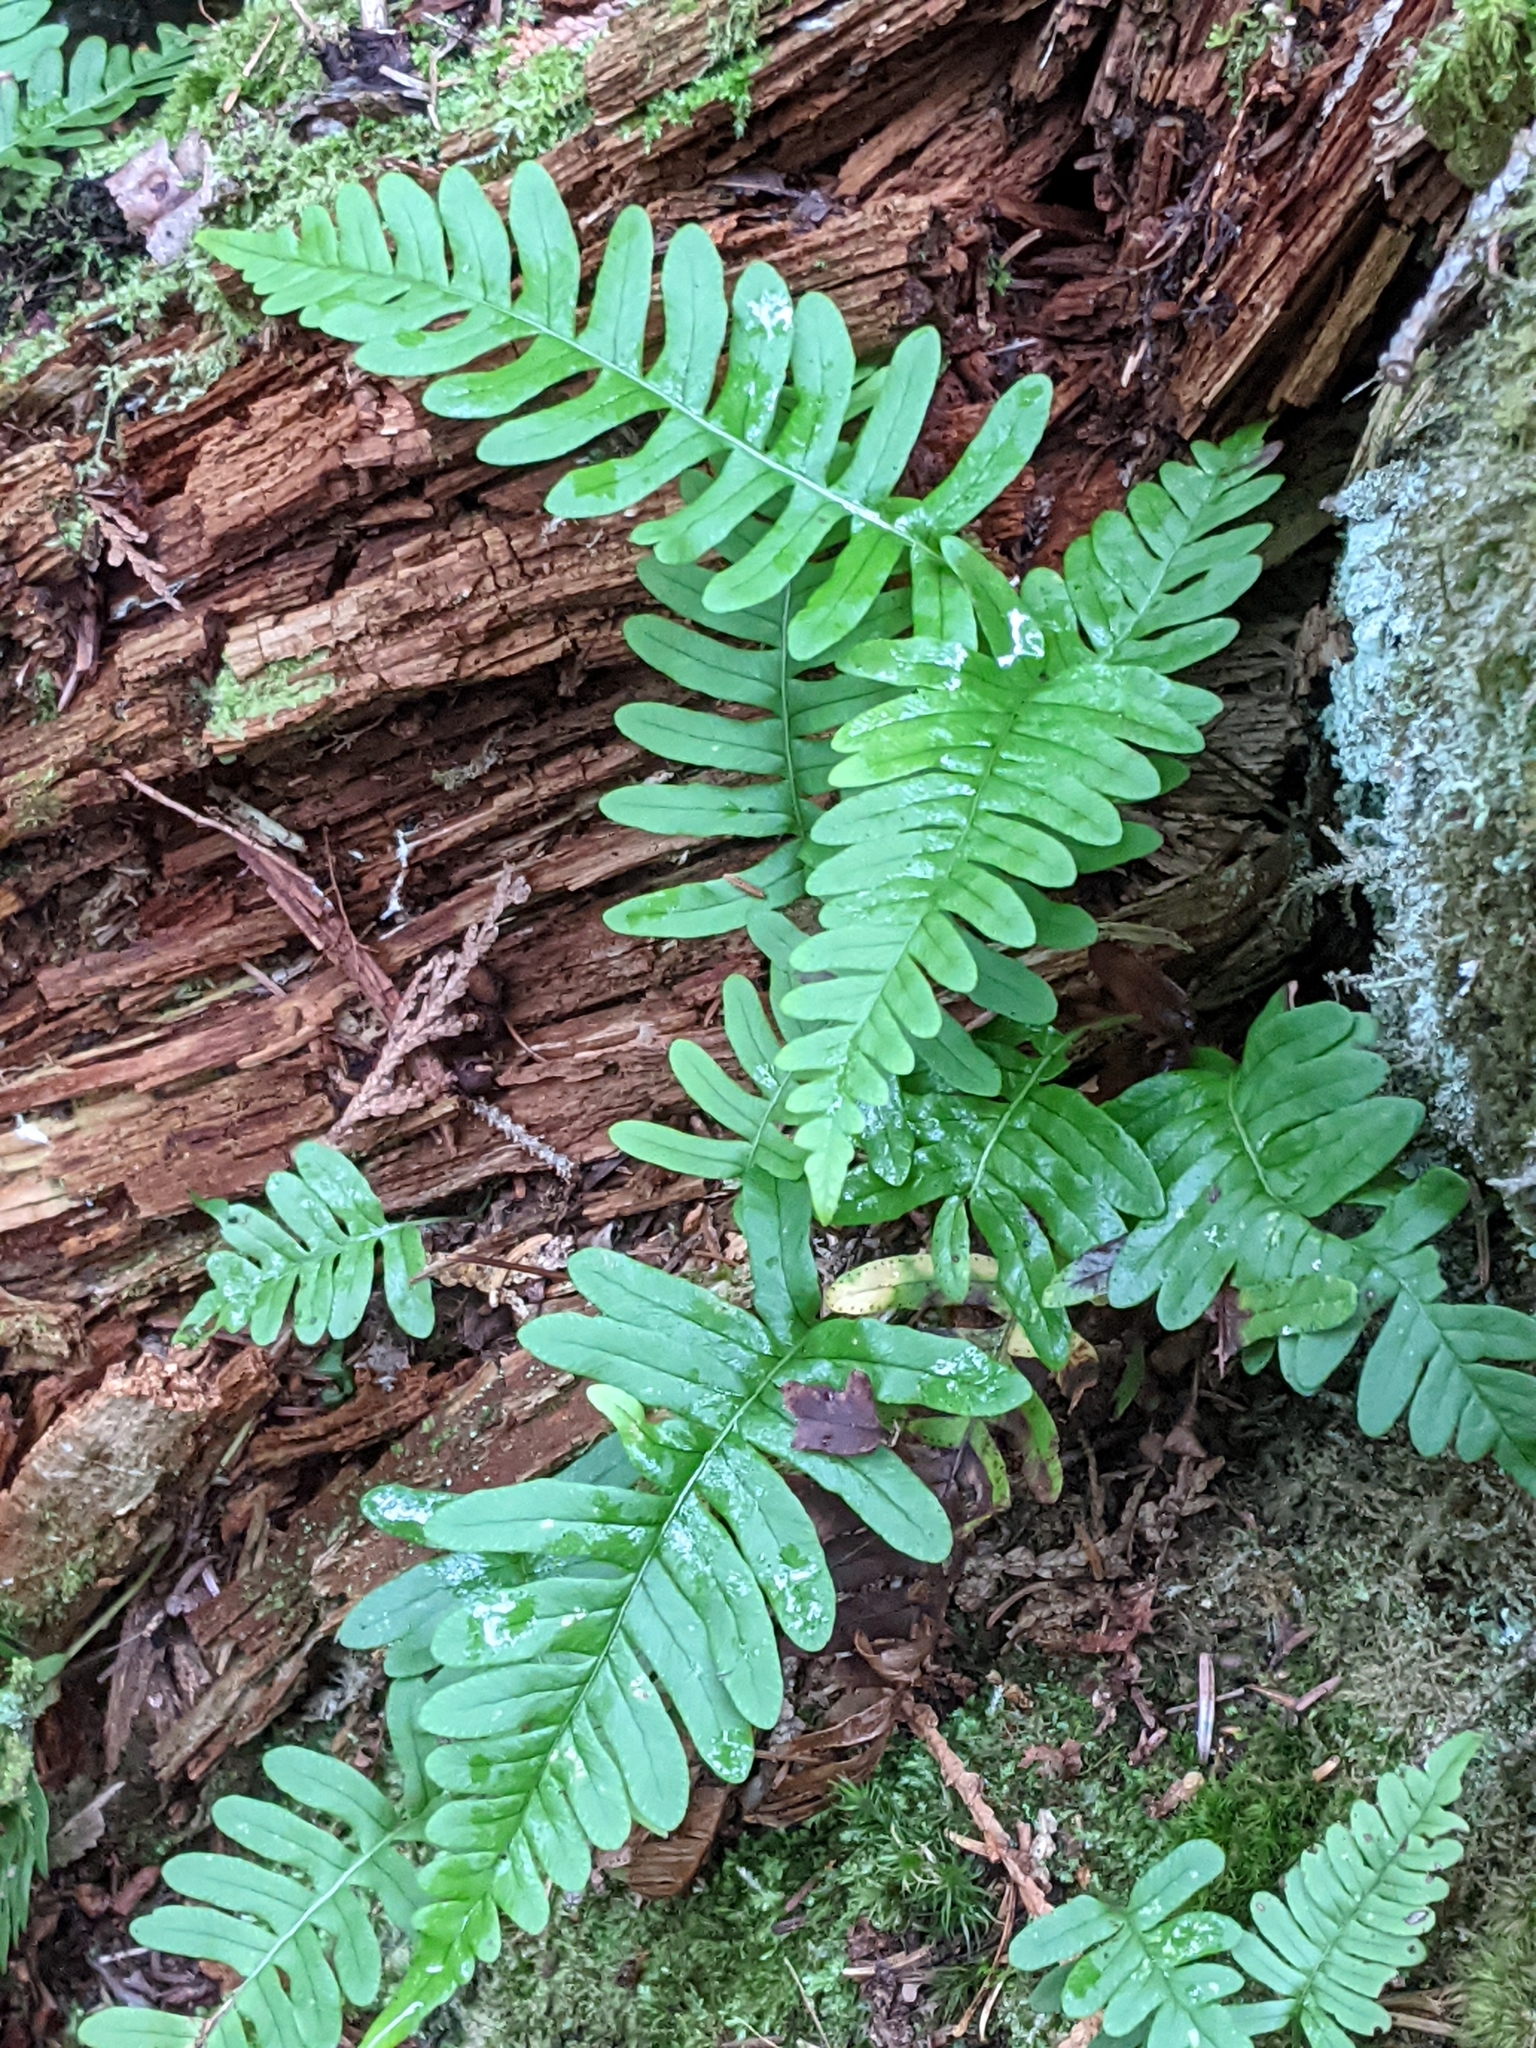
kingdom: Plantae
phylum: Tracheophyta
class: Polypodiopsida
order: Polypodiales
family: Polypodiaceae
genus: Polypodium
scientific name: Polypodium virginianum
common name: American wall fern
